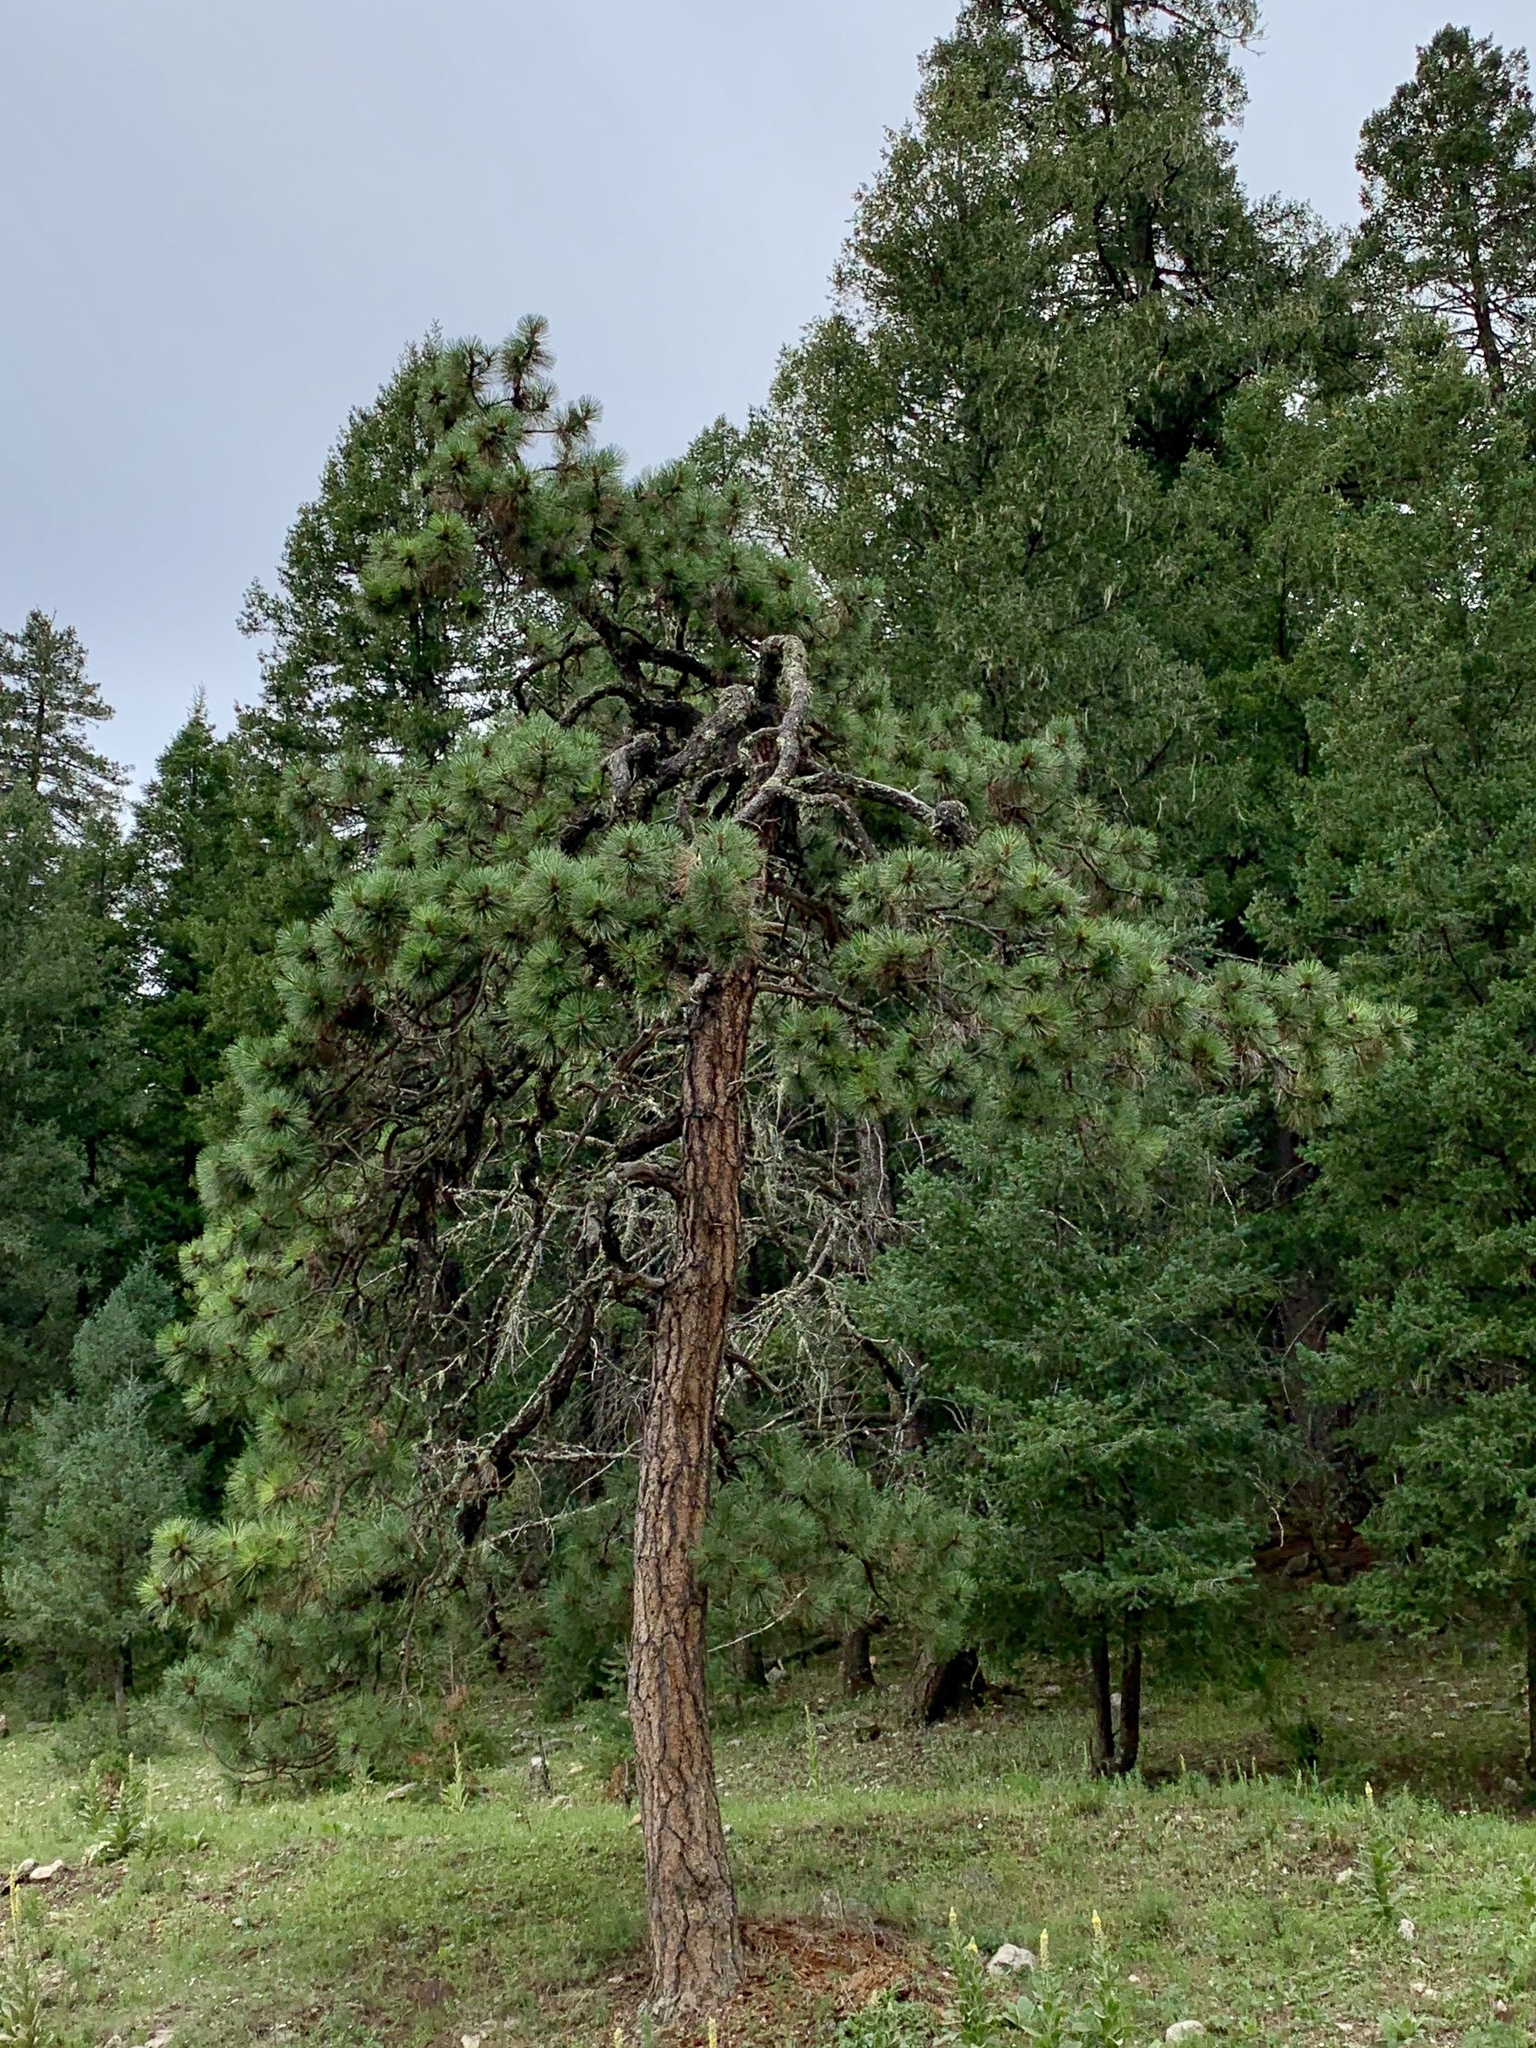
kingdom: Plantae
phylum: Tracheophyta
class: Pinopsida
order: Pinales
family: Pinaceae
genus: Pinus
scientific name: Pinus ponderosa
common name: Western yellow-pine
